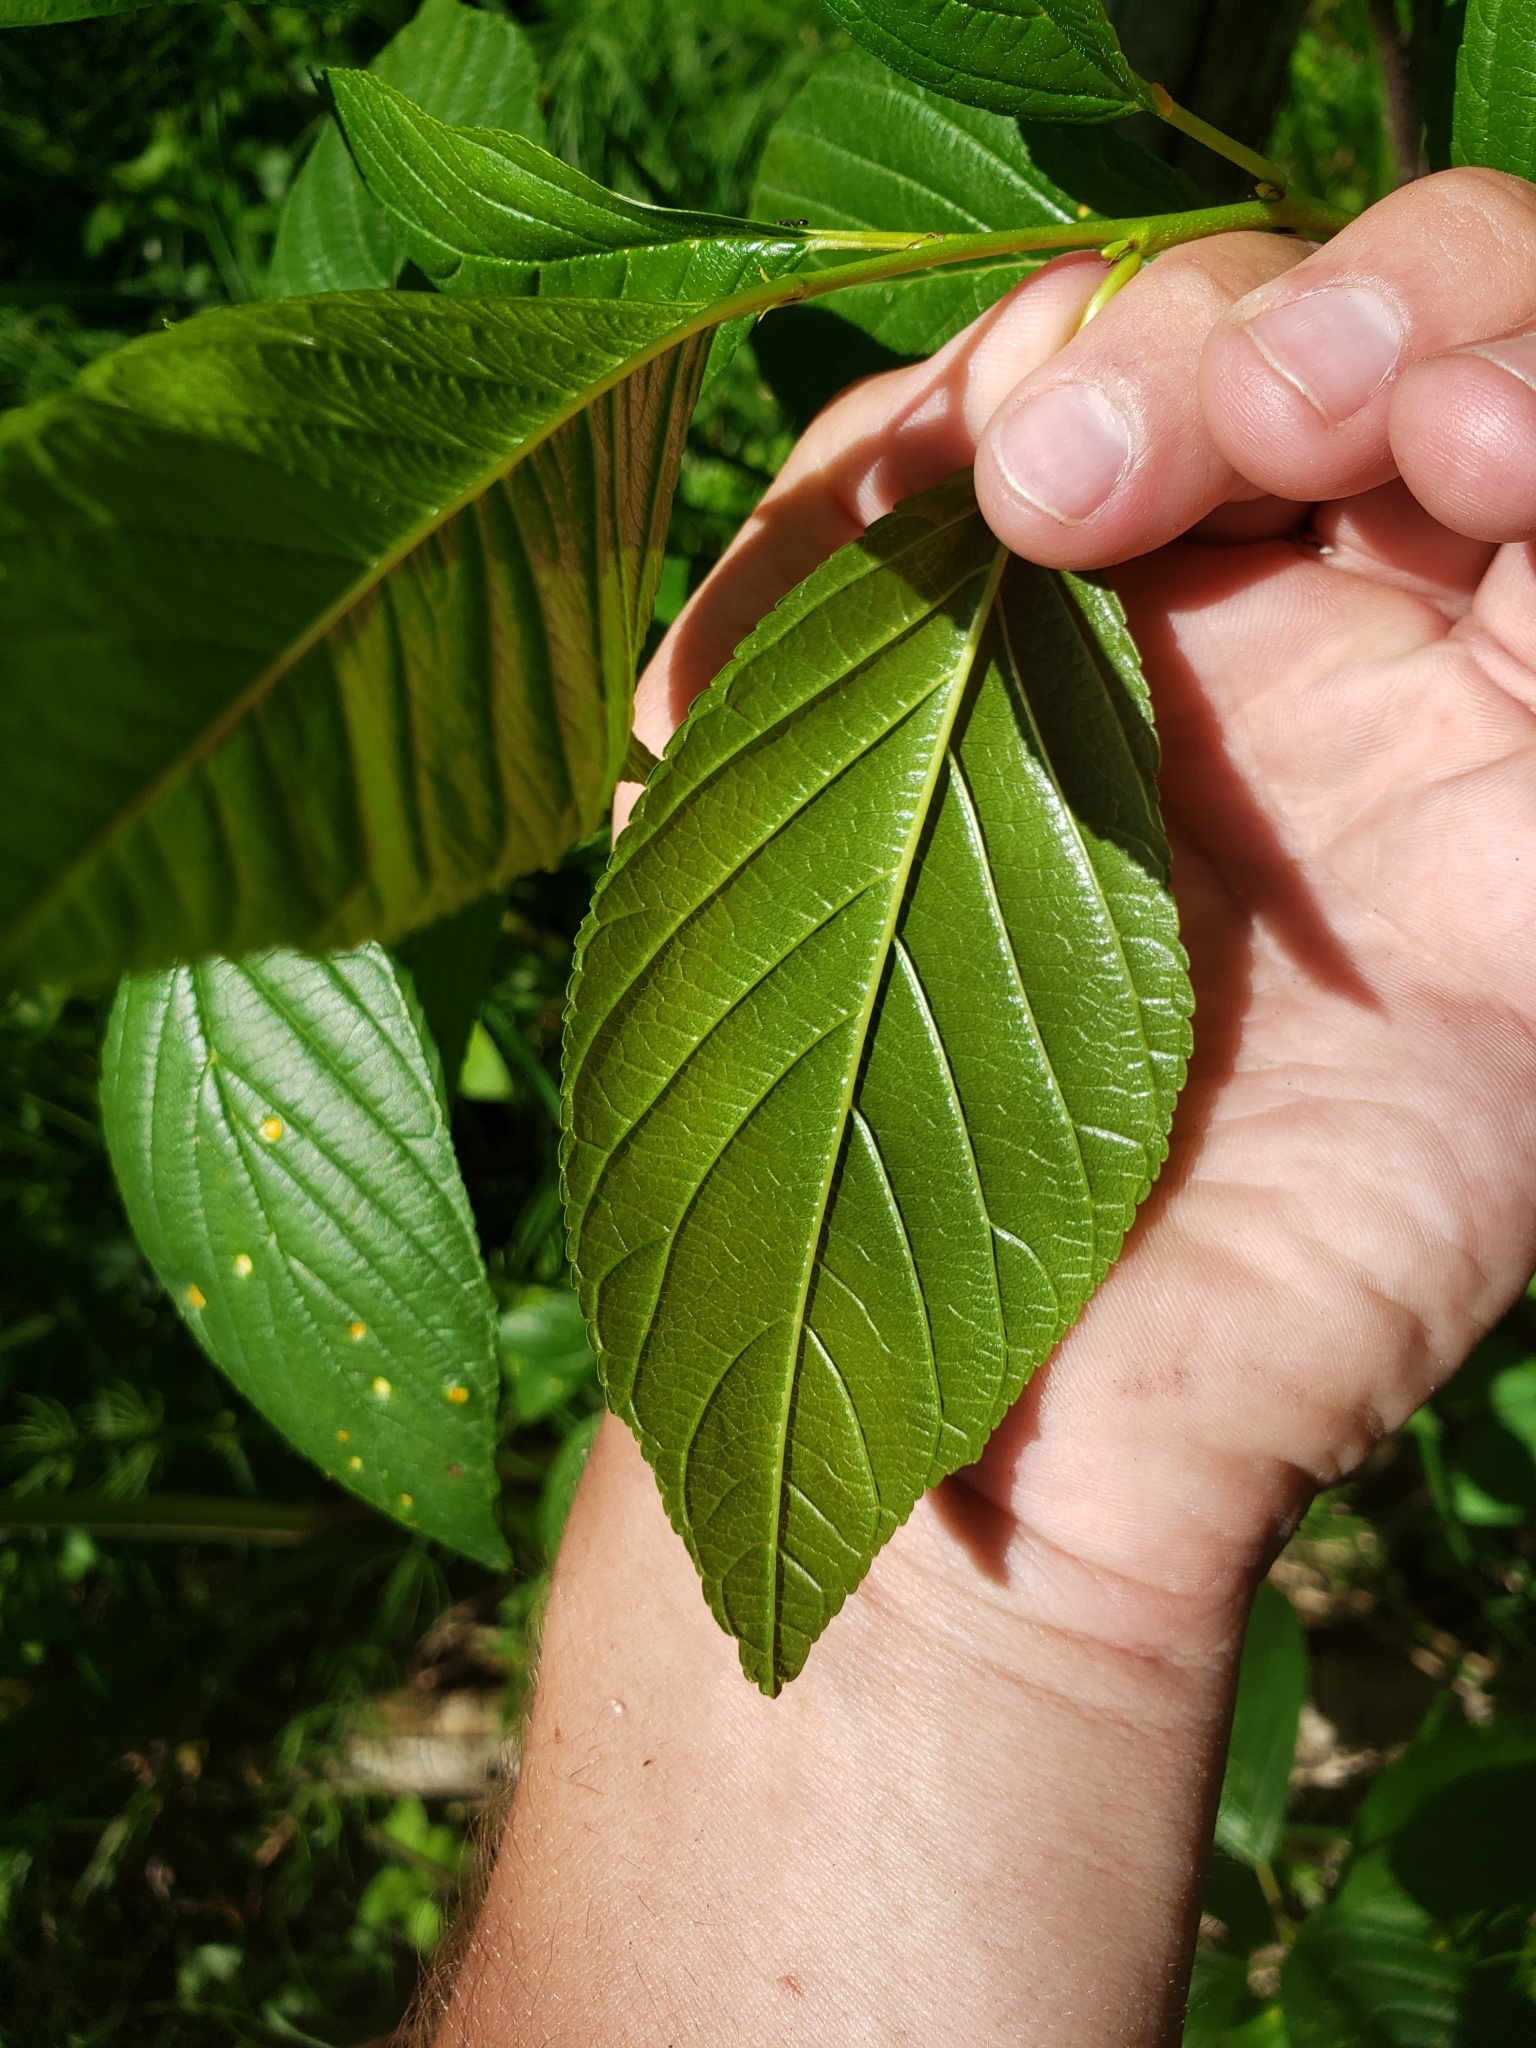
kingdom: Plantae
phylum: Tracheophyta
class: Magnoliopsida
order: Rosales
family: Rhamnaceae
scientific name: Rhamnaceae
